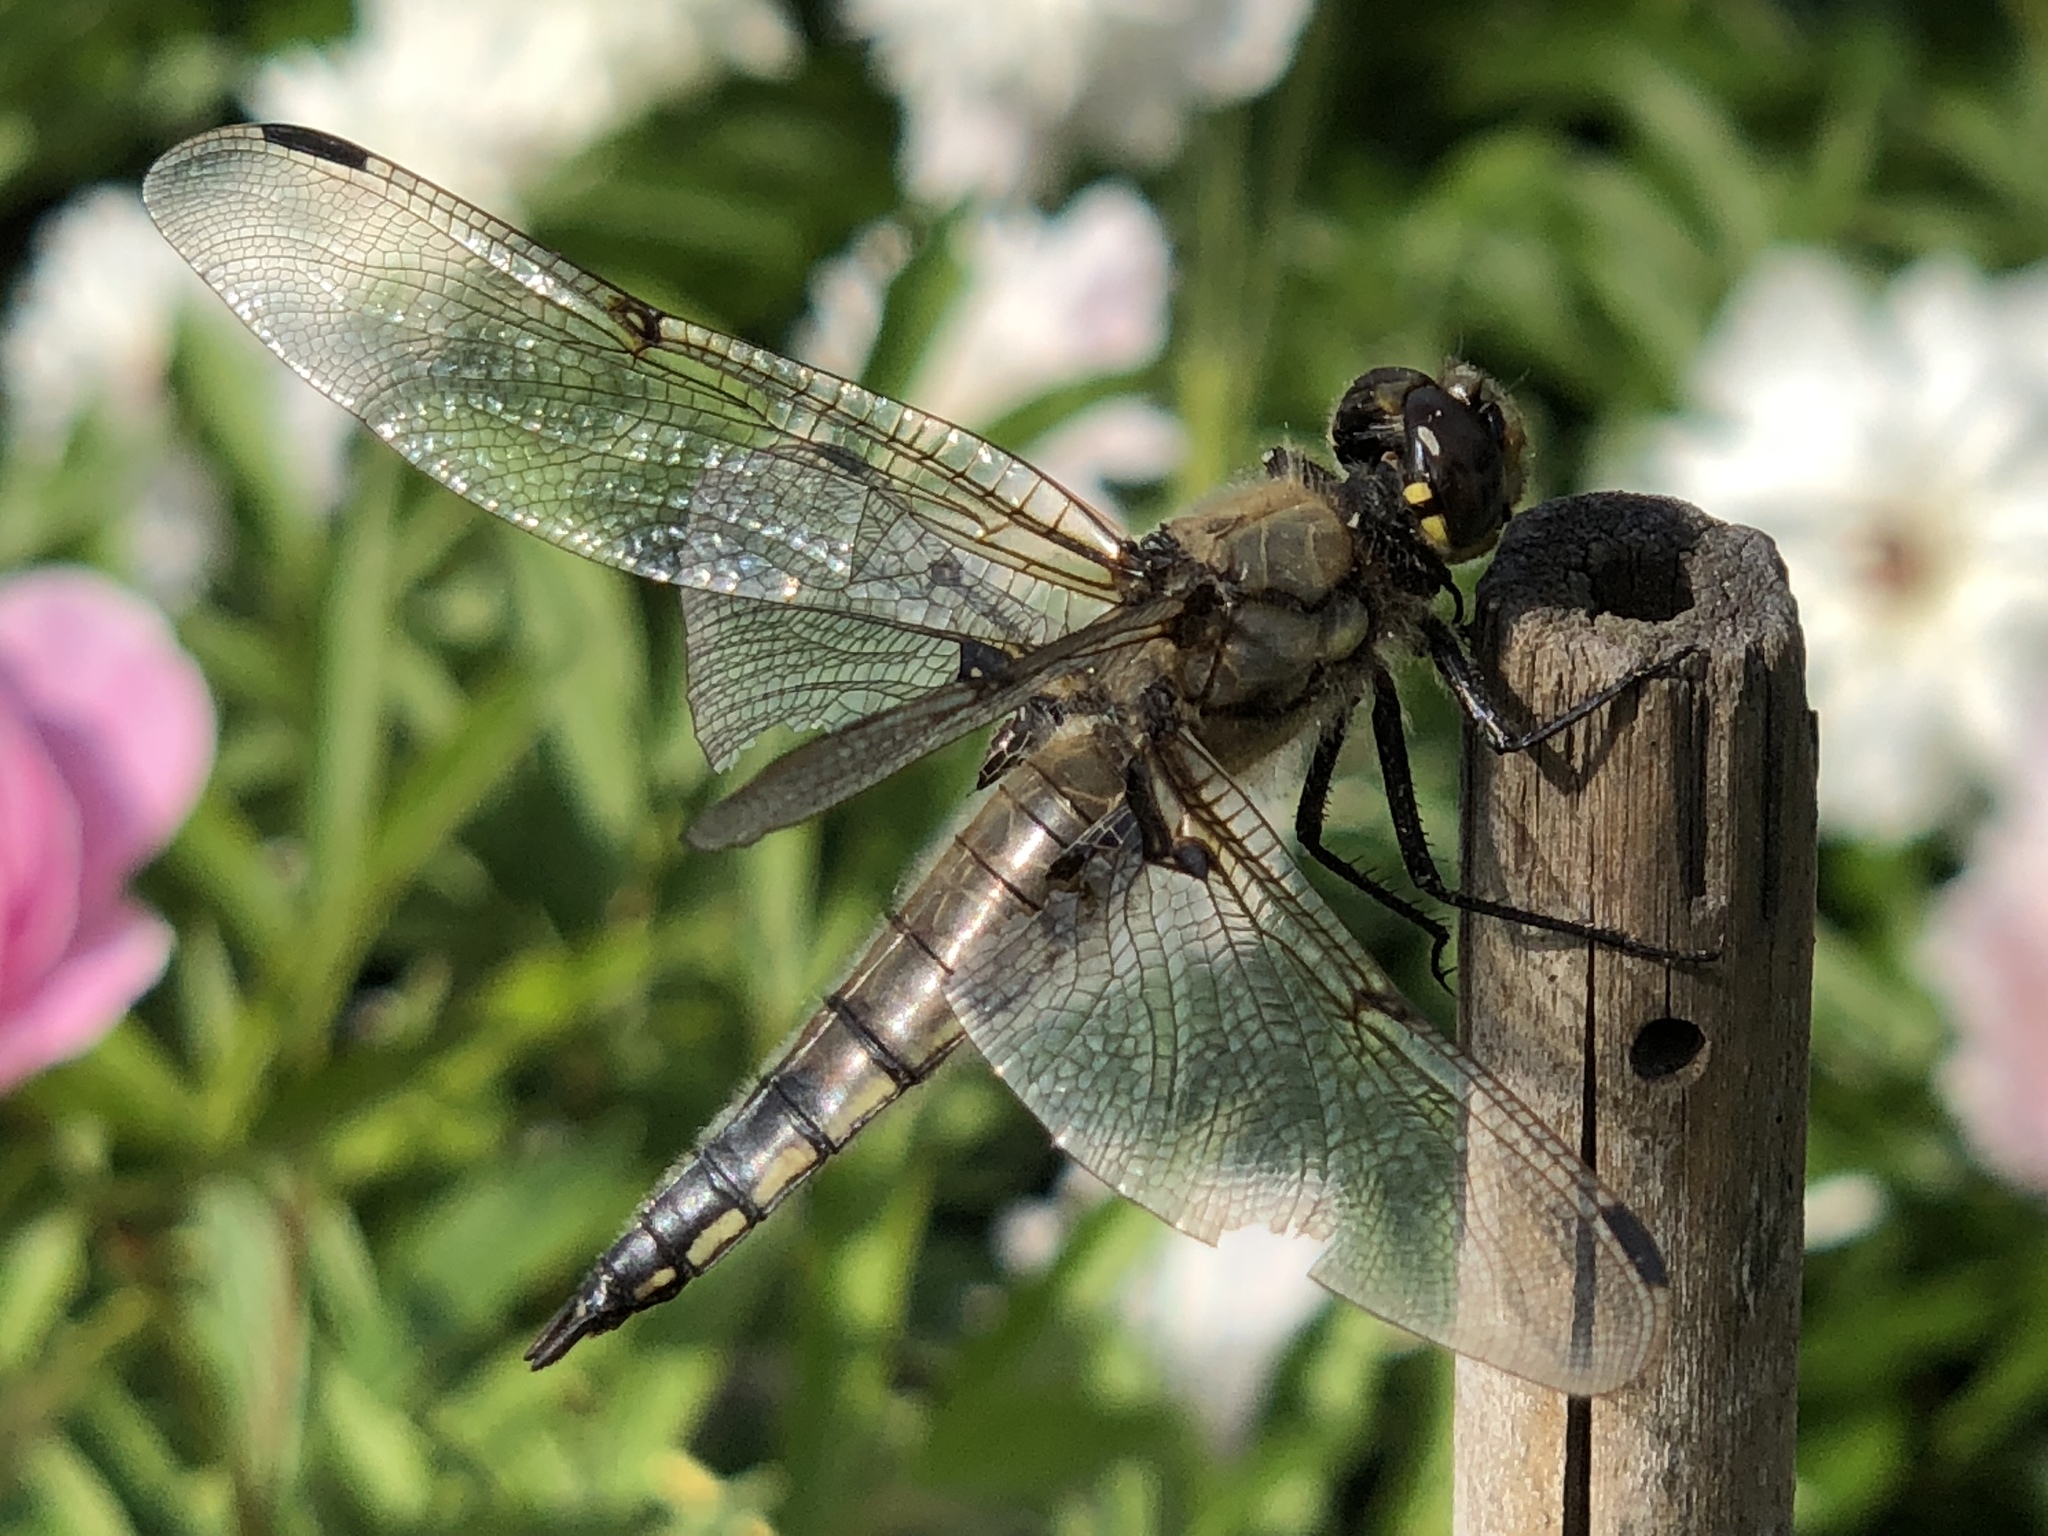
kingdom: Animalia
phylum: Arthropoda
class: Insecta
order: Odonata
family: Libellulidae
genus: Libellula
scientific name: Libellula quadrimaculata
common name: Four-spotted chaser
